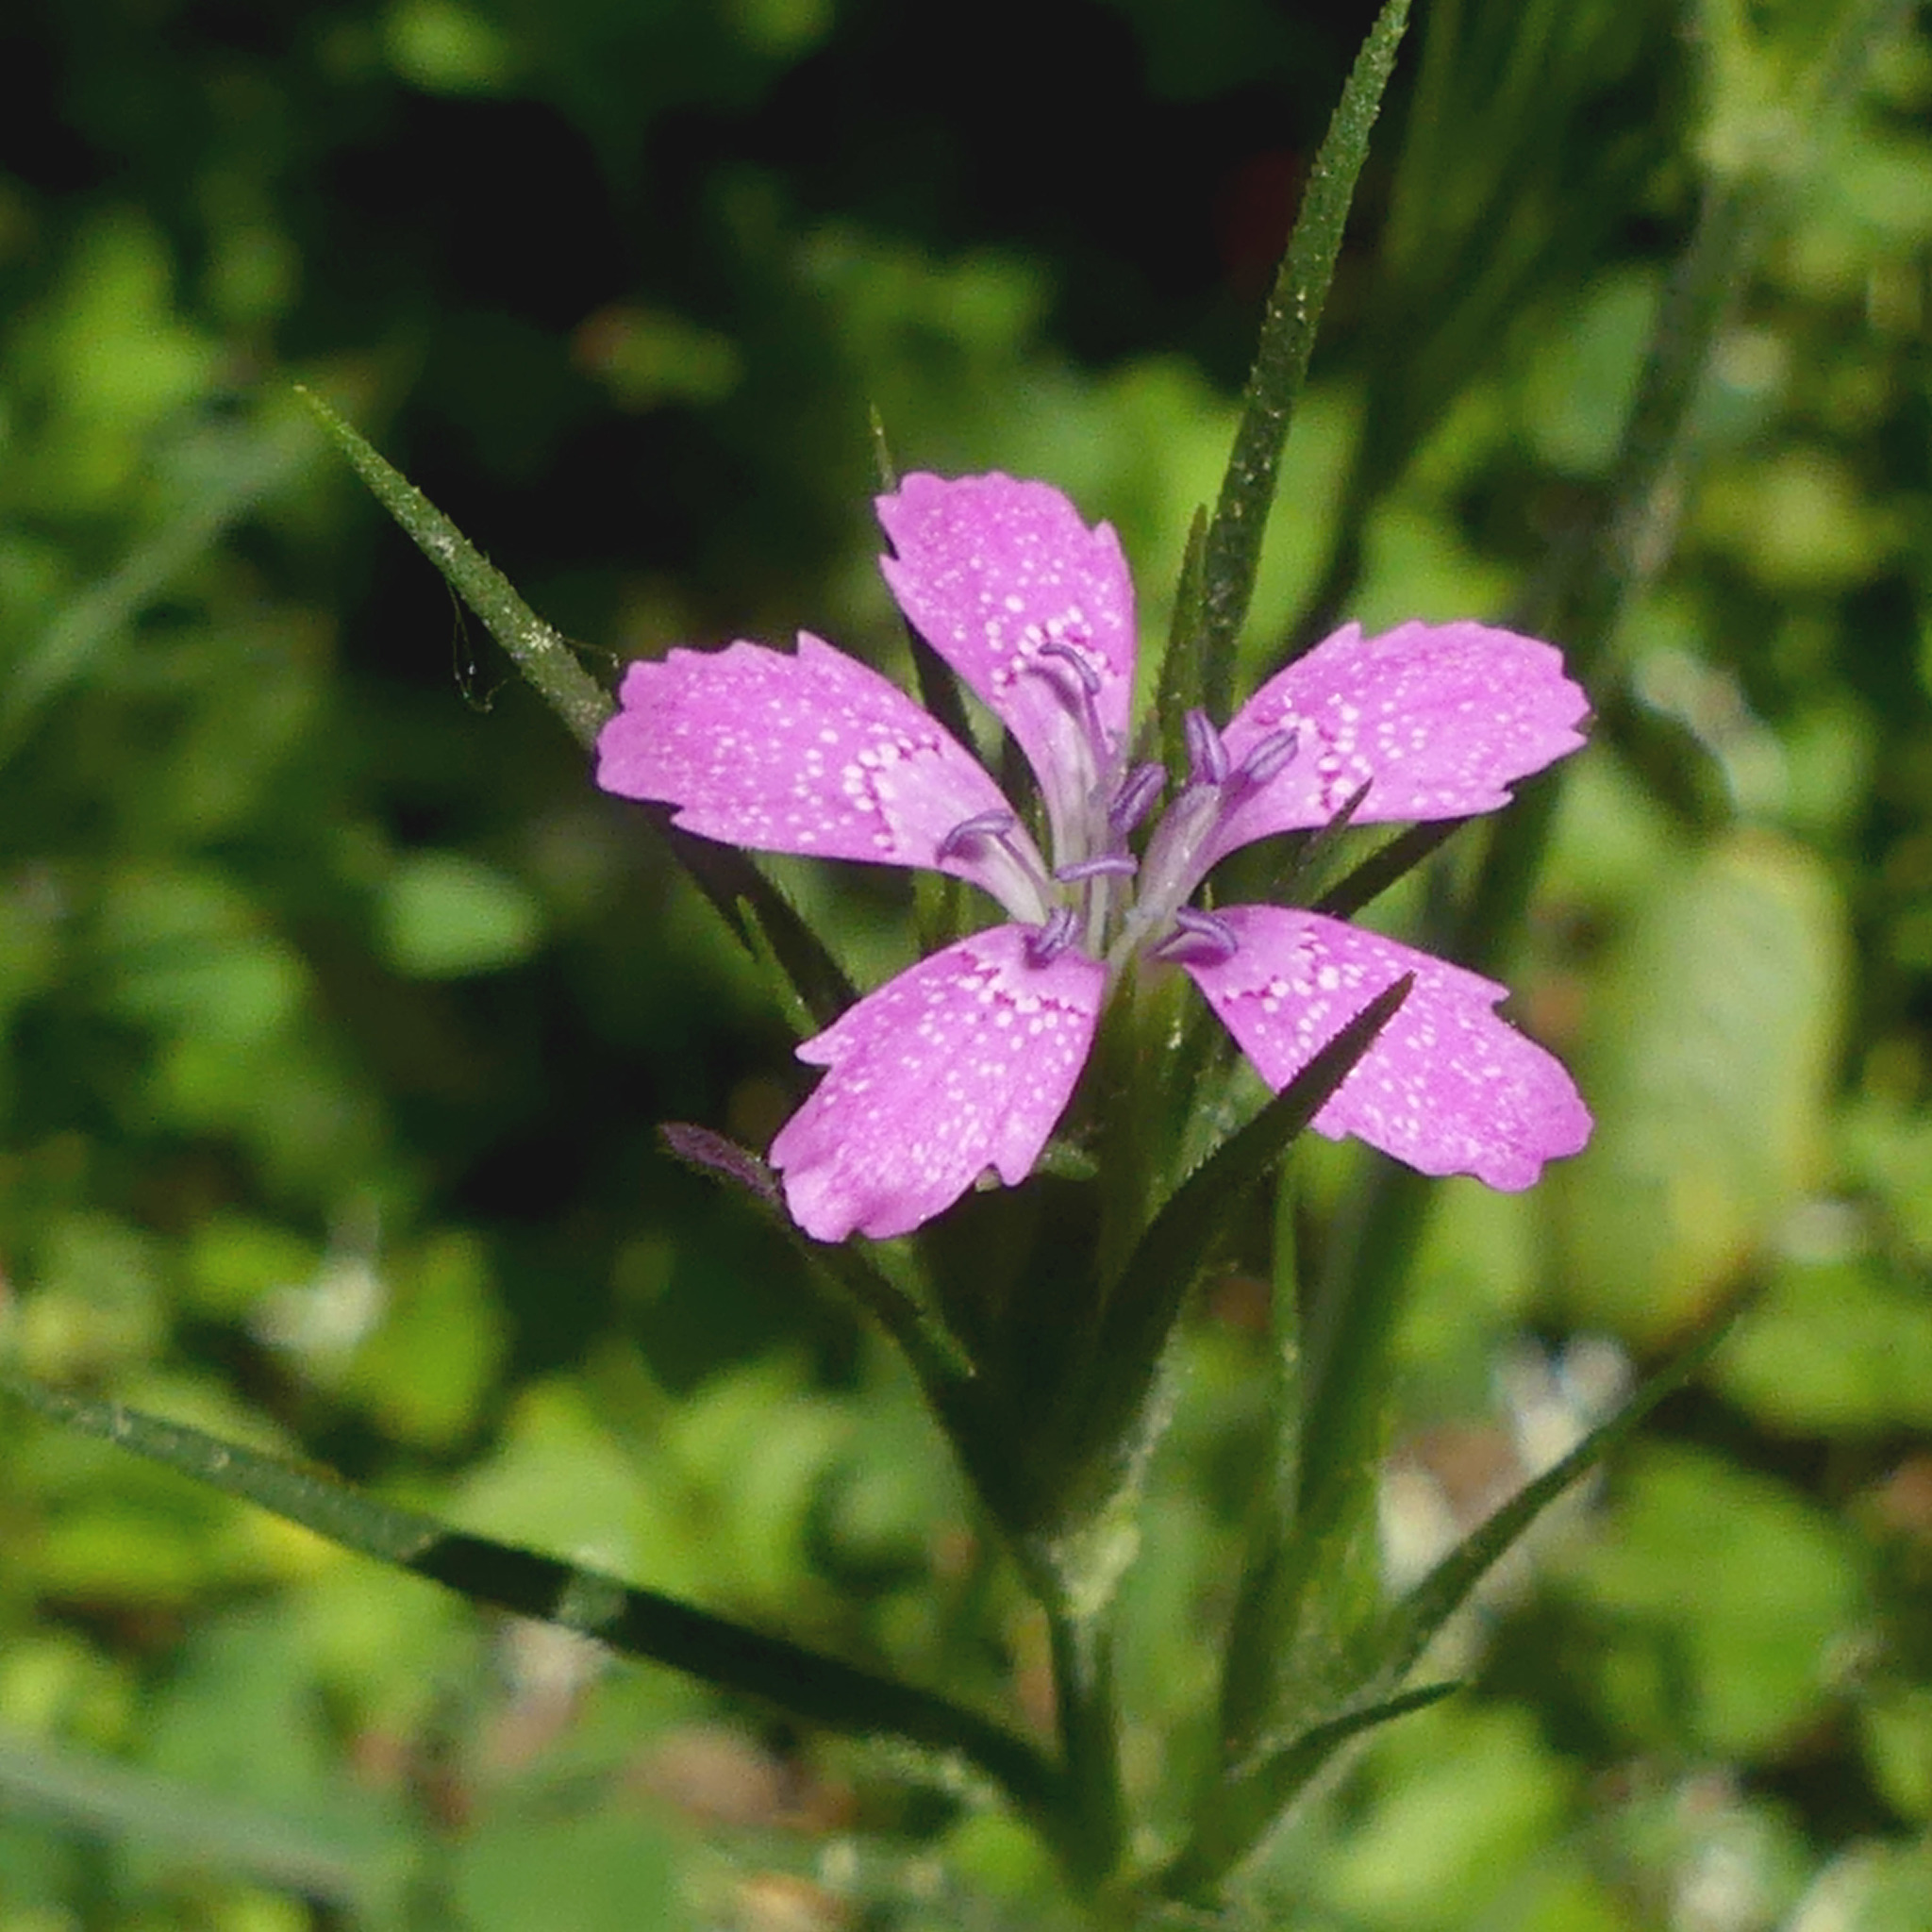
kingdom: Plantae
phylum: Tracheophyta
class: Magnoliopsida
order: Caryophyllales
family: Caryophyllaceae
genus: Dianthus
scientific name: Dianthus armeria
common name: Deptford pink
